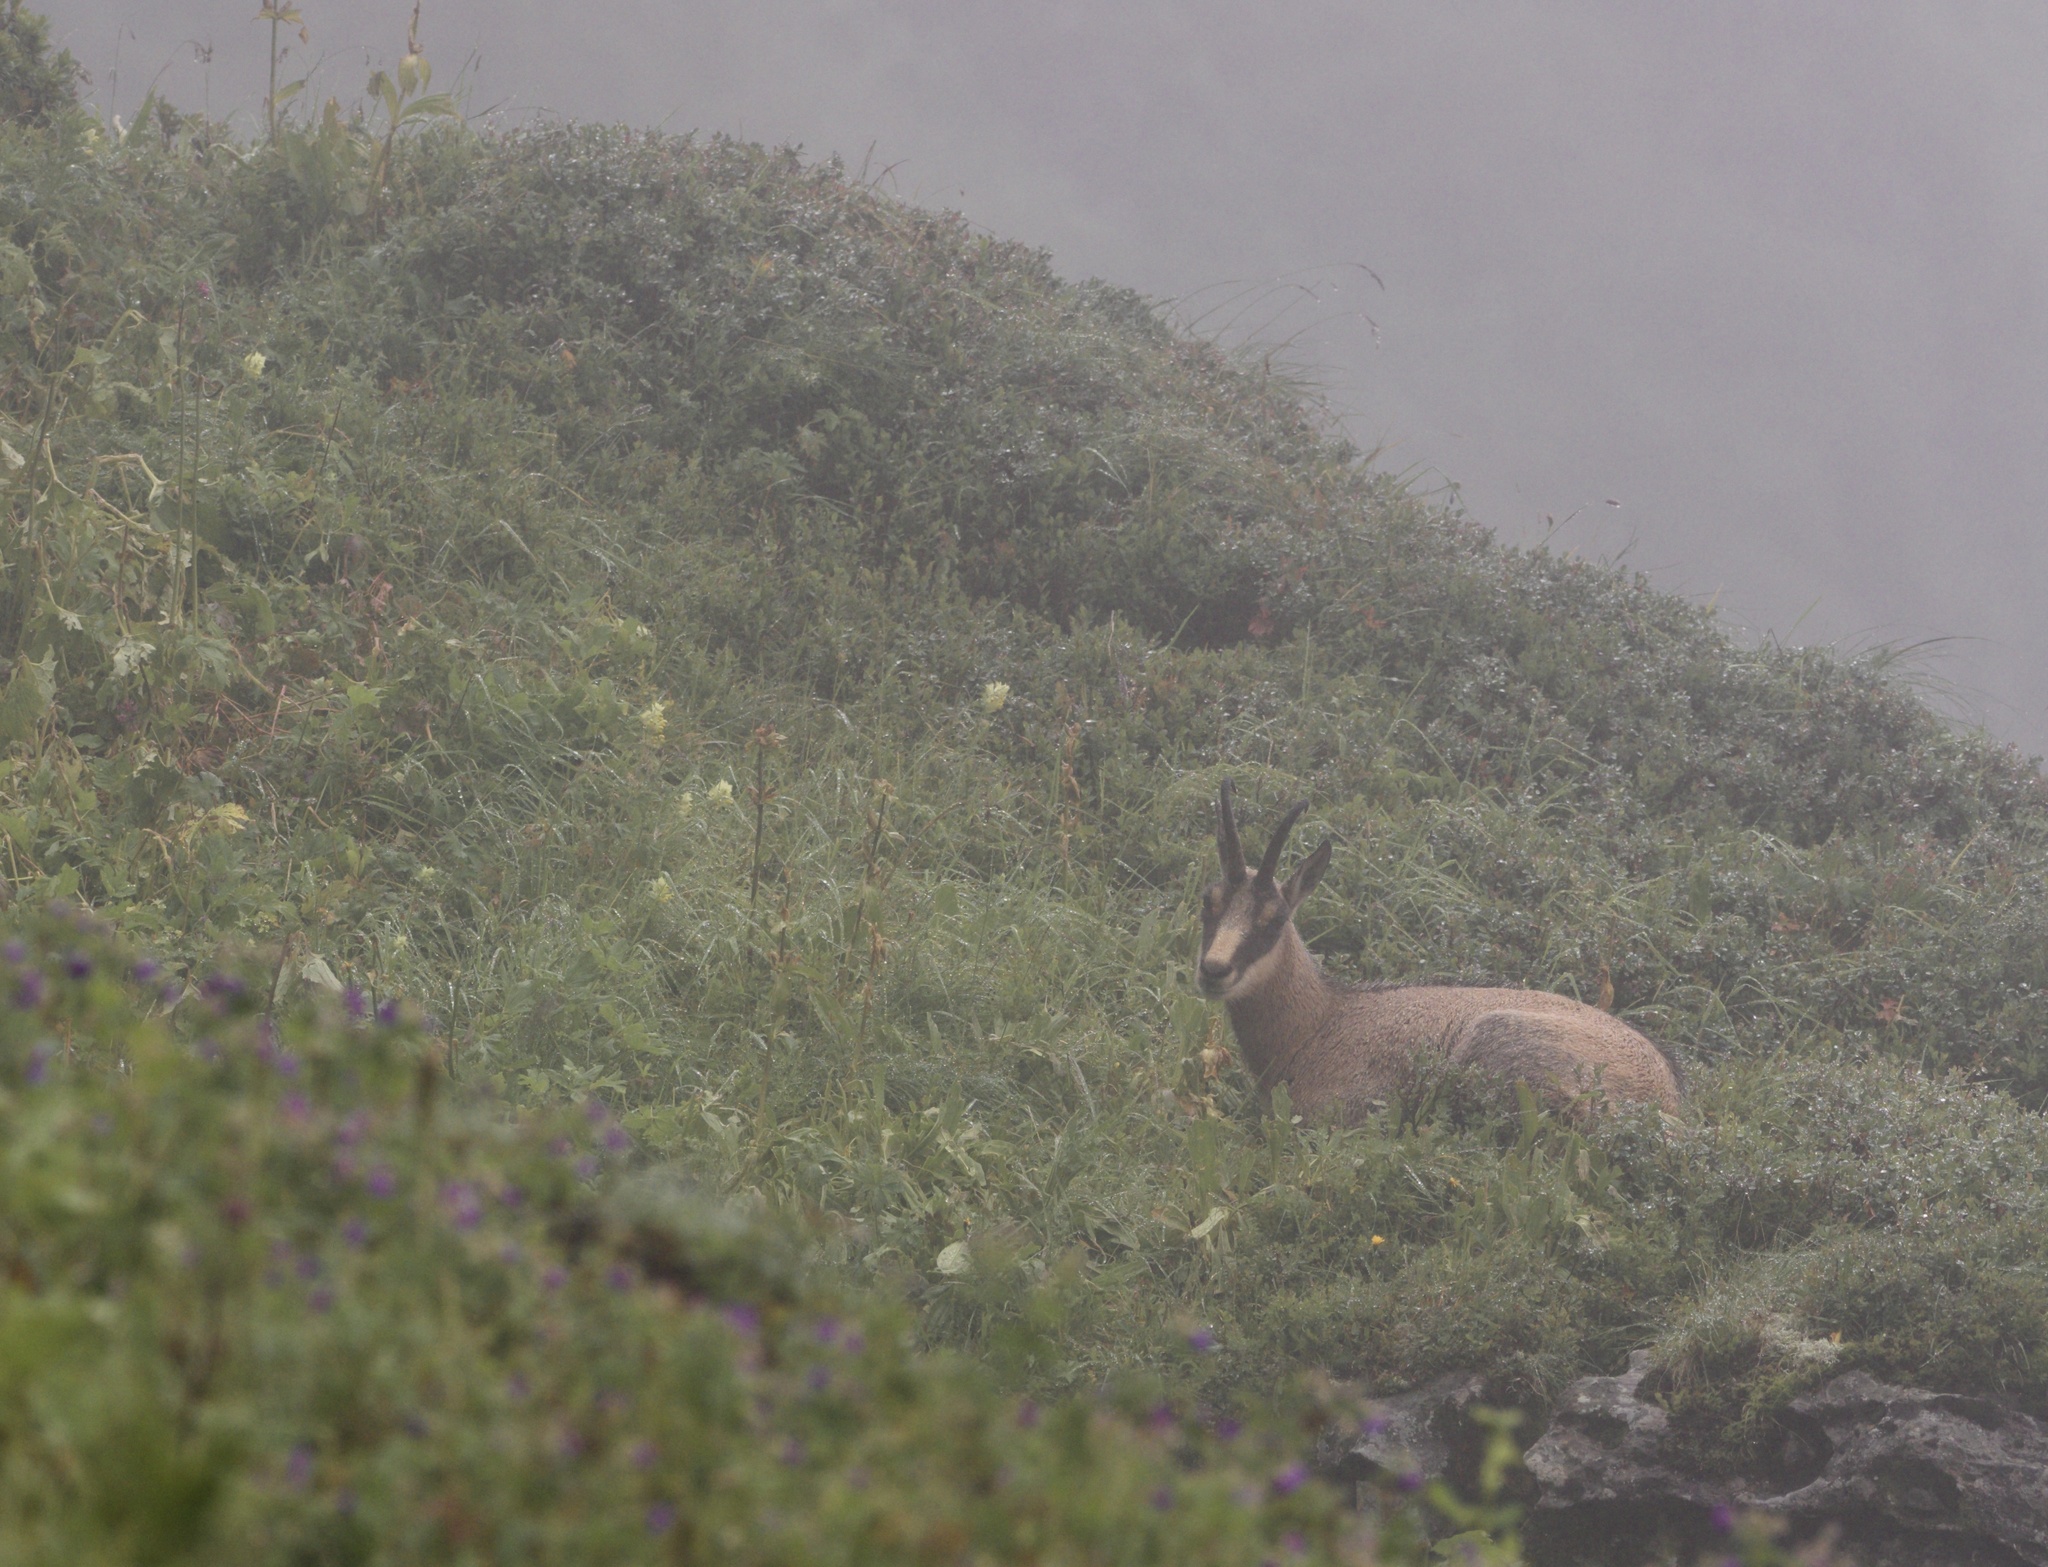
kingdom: Animalia
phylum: Chordata
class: Mammalia
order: Artiodactyla
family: Bovidae
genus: Rupicapra
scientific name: Rupicapra rupicapra
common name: Chamois
